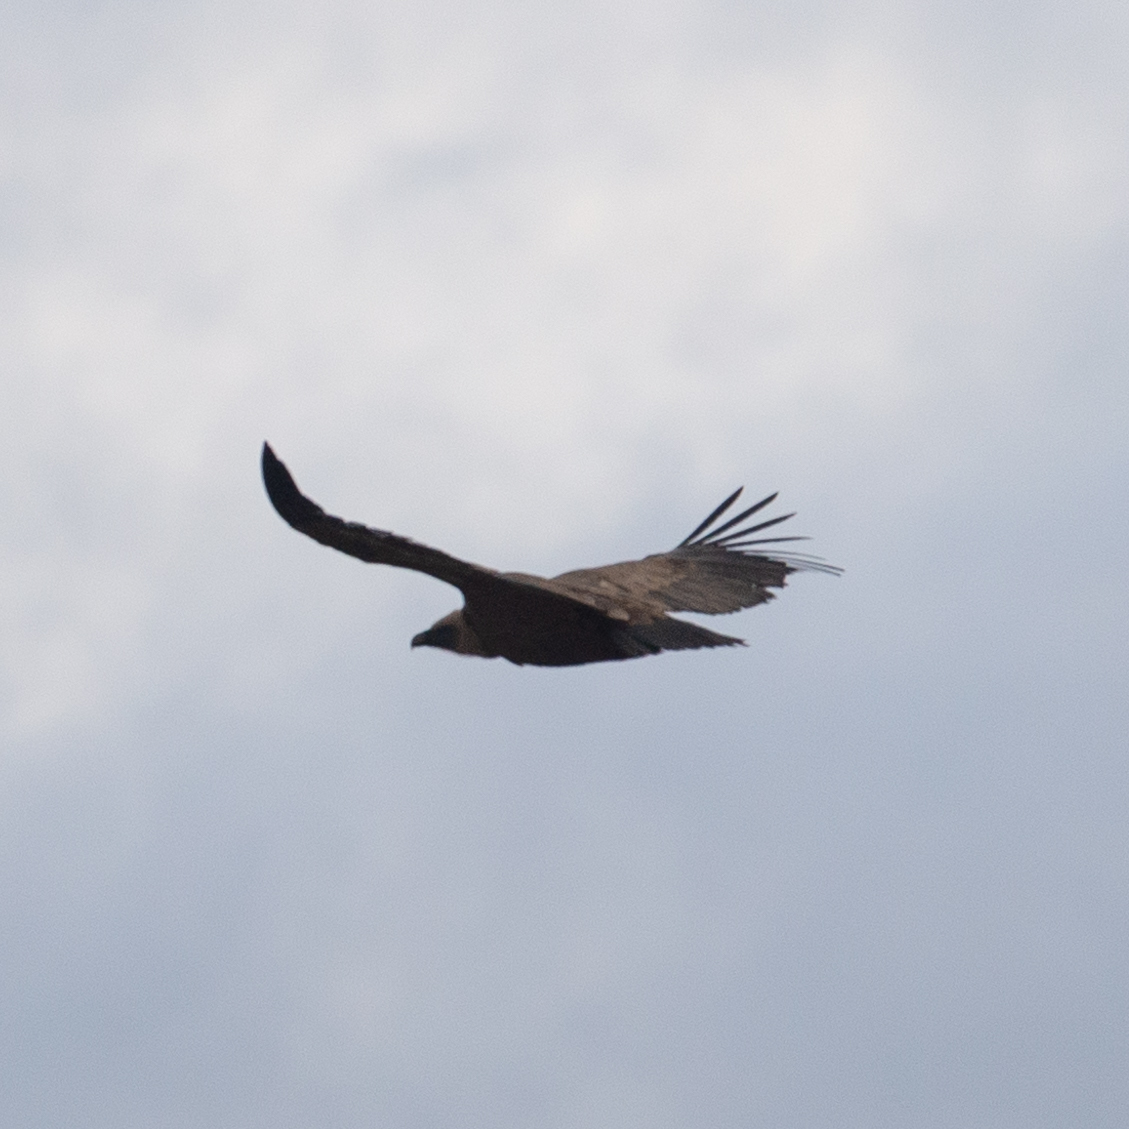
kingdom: Animalia
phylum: Chordata
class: Aves
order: Accipitriformes
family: Accipitridae
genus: Gyps
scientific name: Gyps fulvus
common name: Griffon vulture
